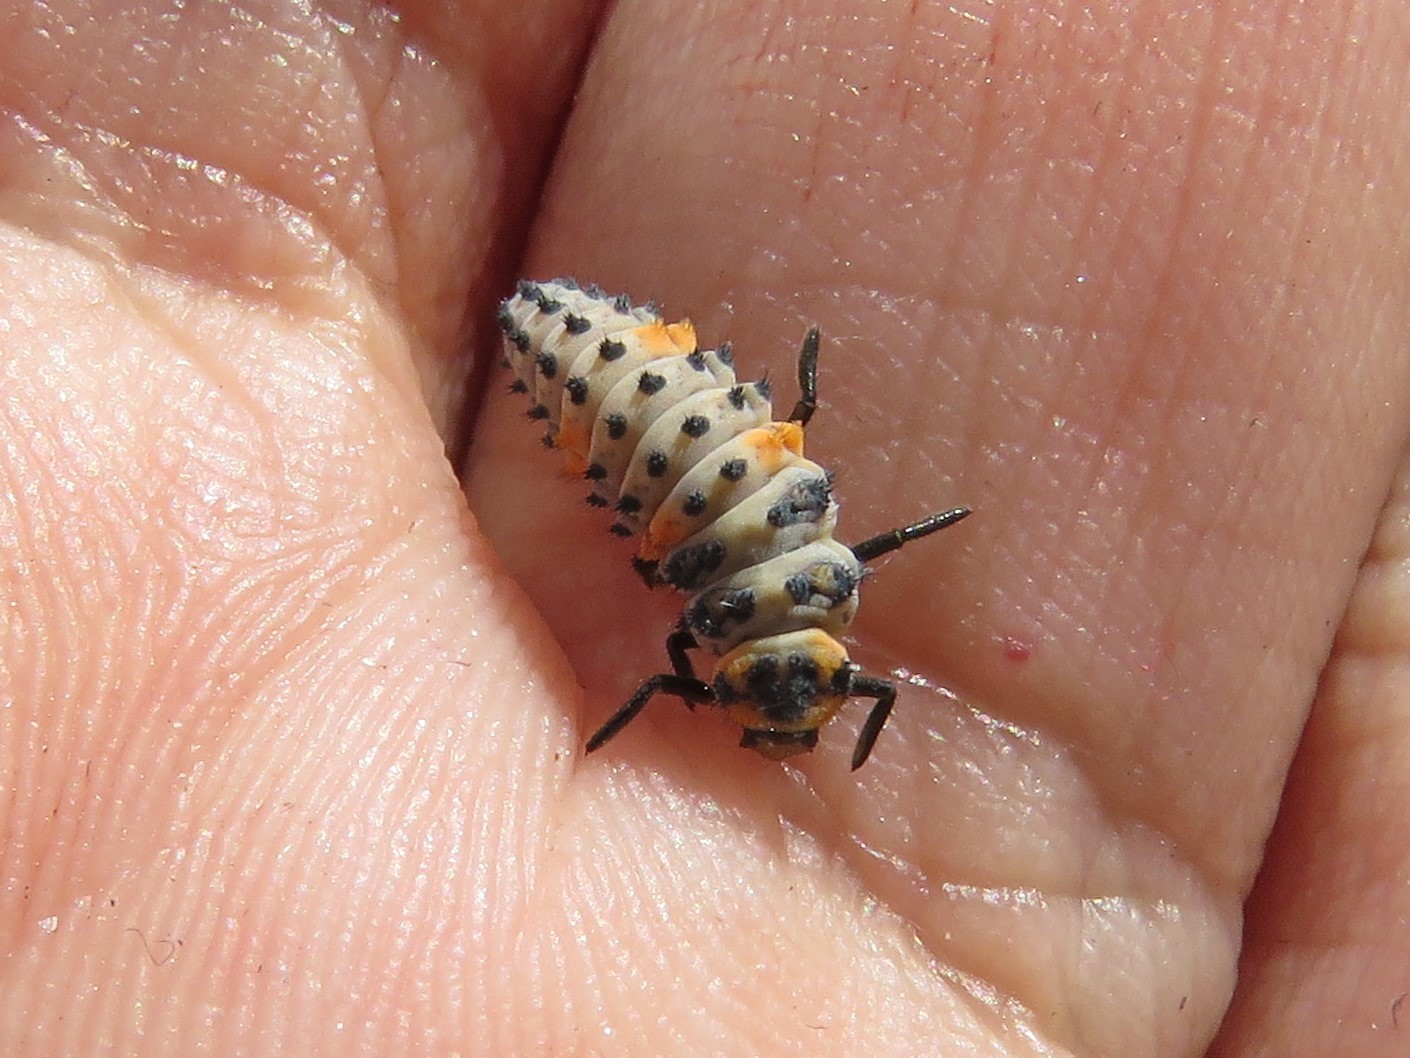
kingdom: Animalia
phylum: Arthropoda
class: Insecta
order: Coleoptera
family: Coccinellidae
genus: Coccinella
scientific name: Coccinella septempunctata
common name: Sevenspotted lady beetle
